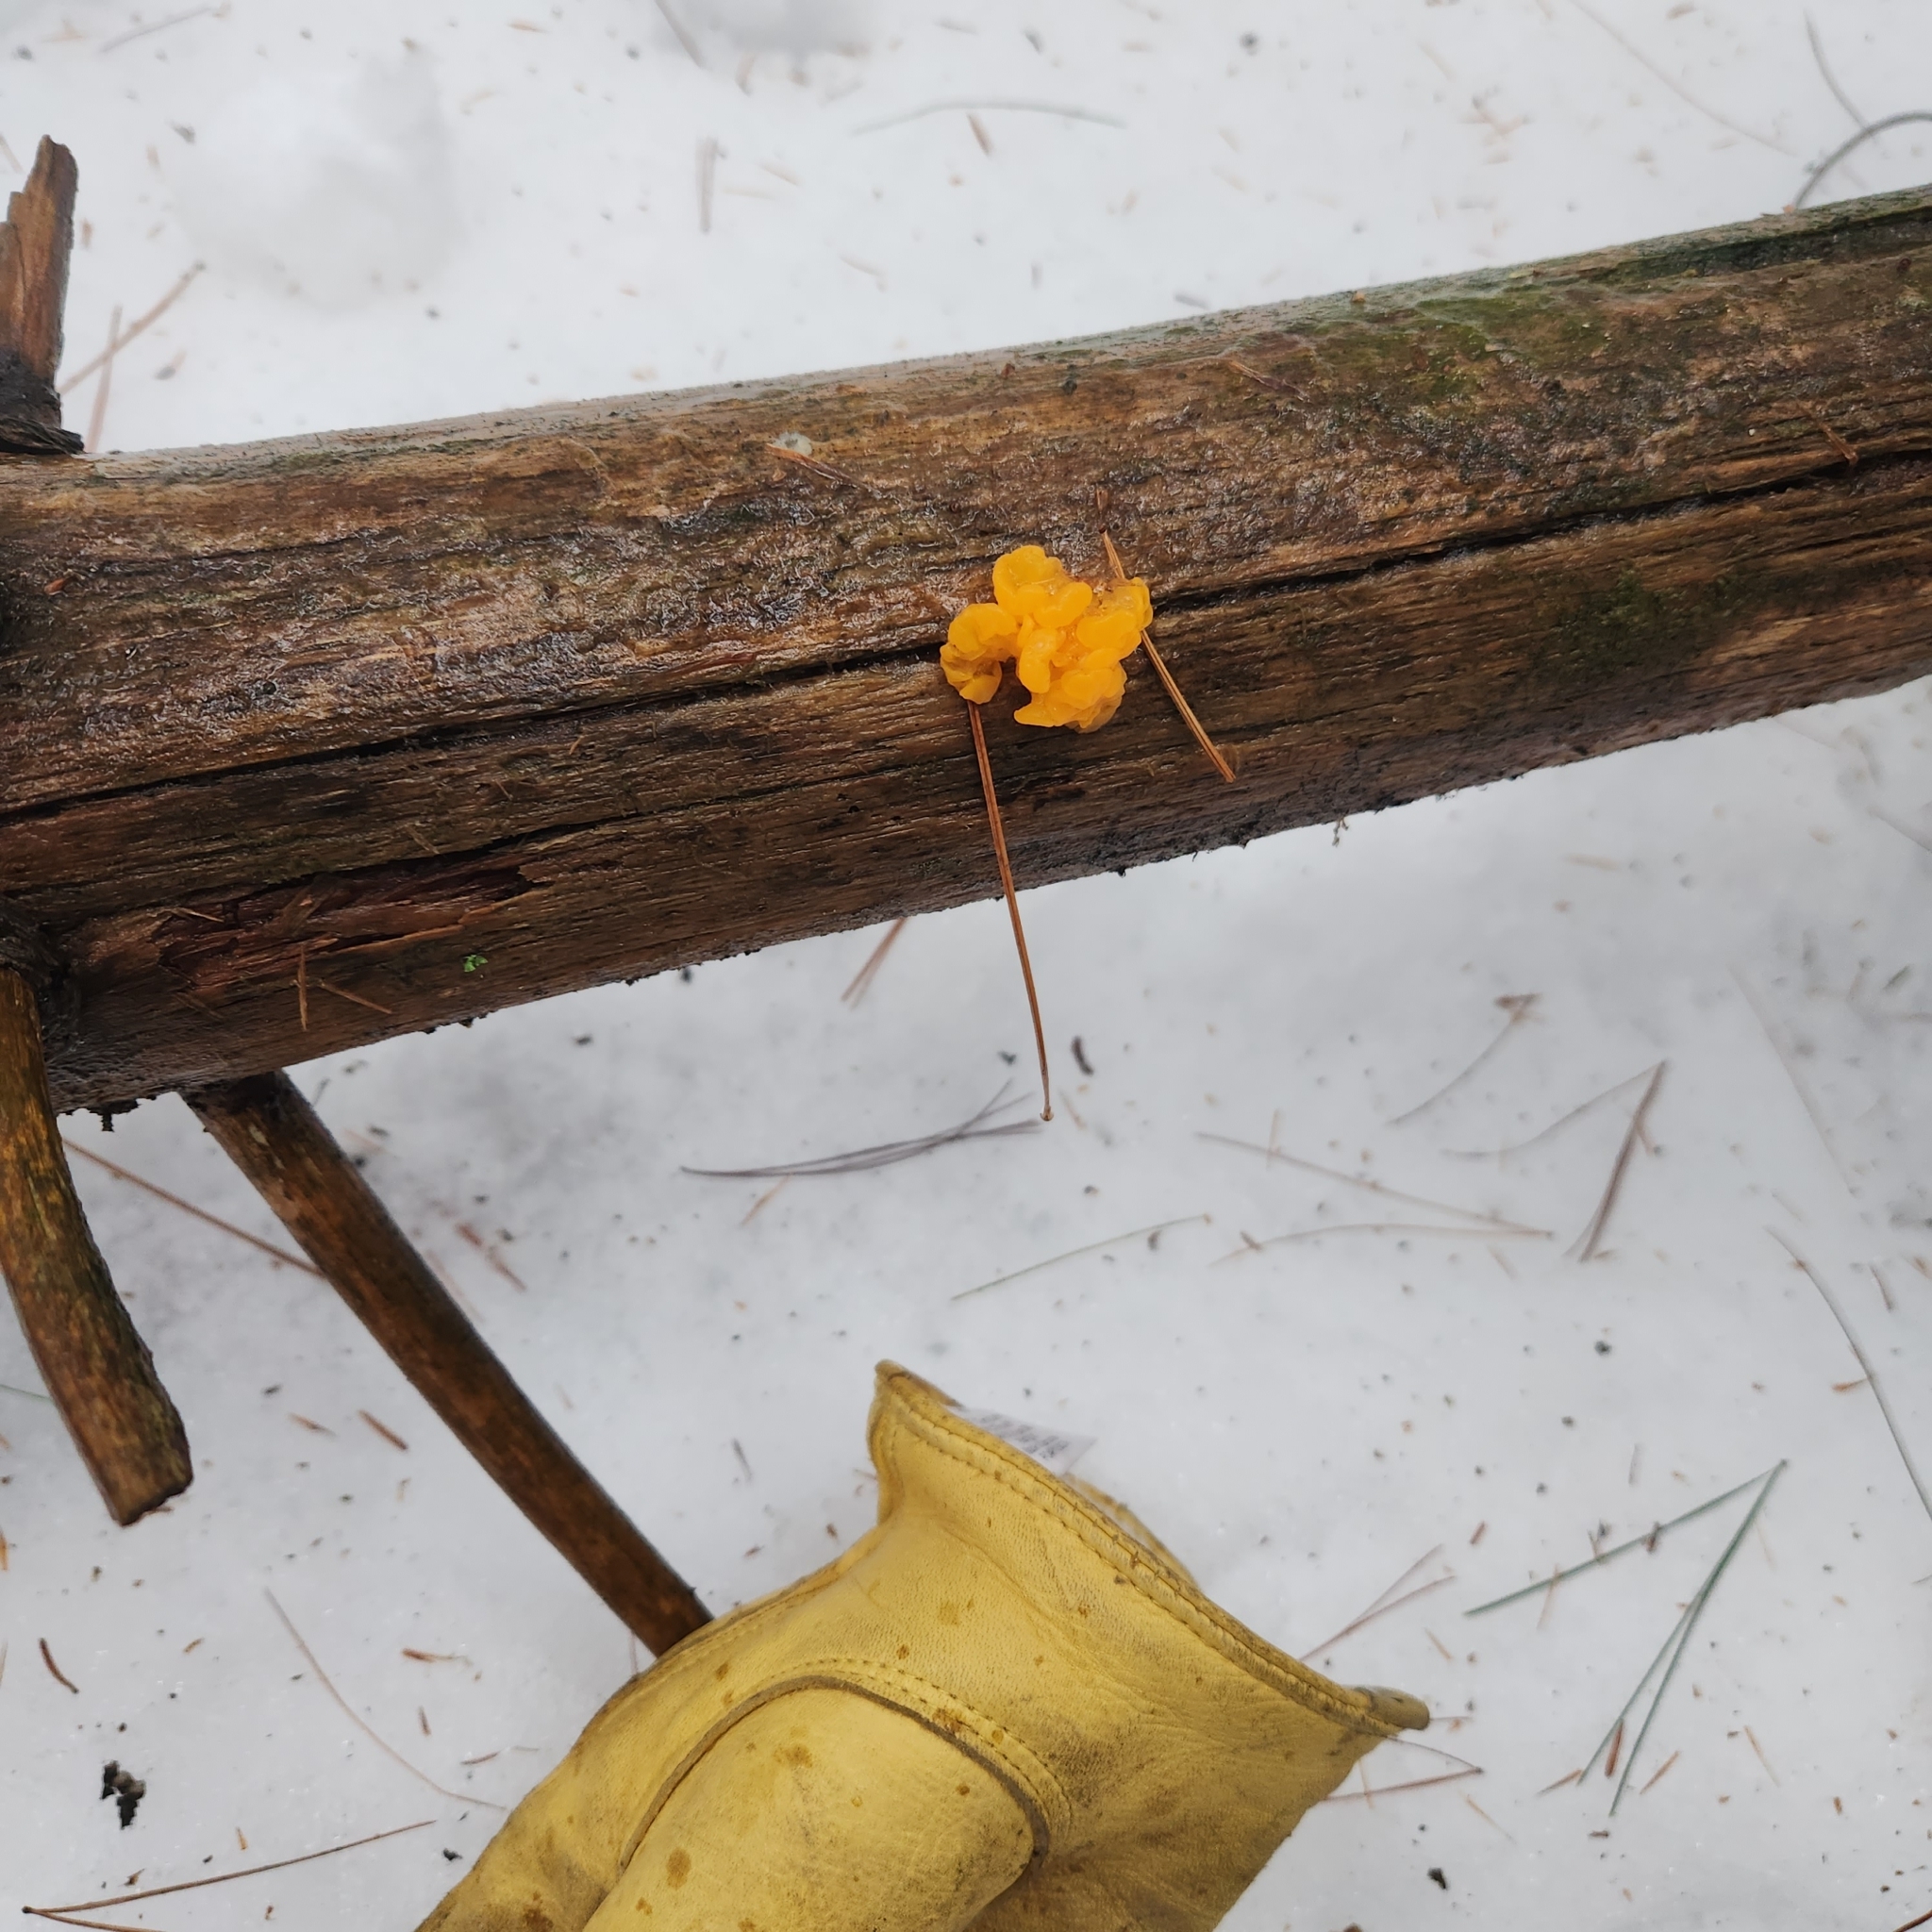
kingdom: Fungi
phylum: Basidiomycota
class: Dacrymycetes
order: Dacrymycetales
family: Dacrymycetaceae
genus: Dacrymyces
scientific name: Dacrymyces chrysospermus
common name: Orange jelly spot
